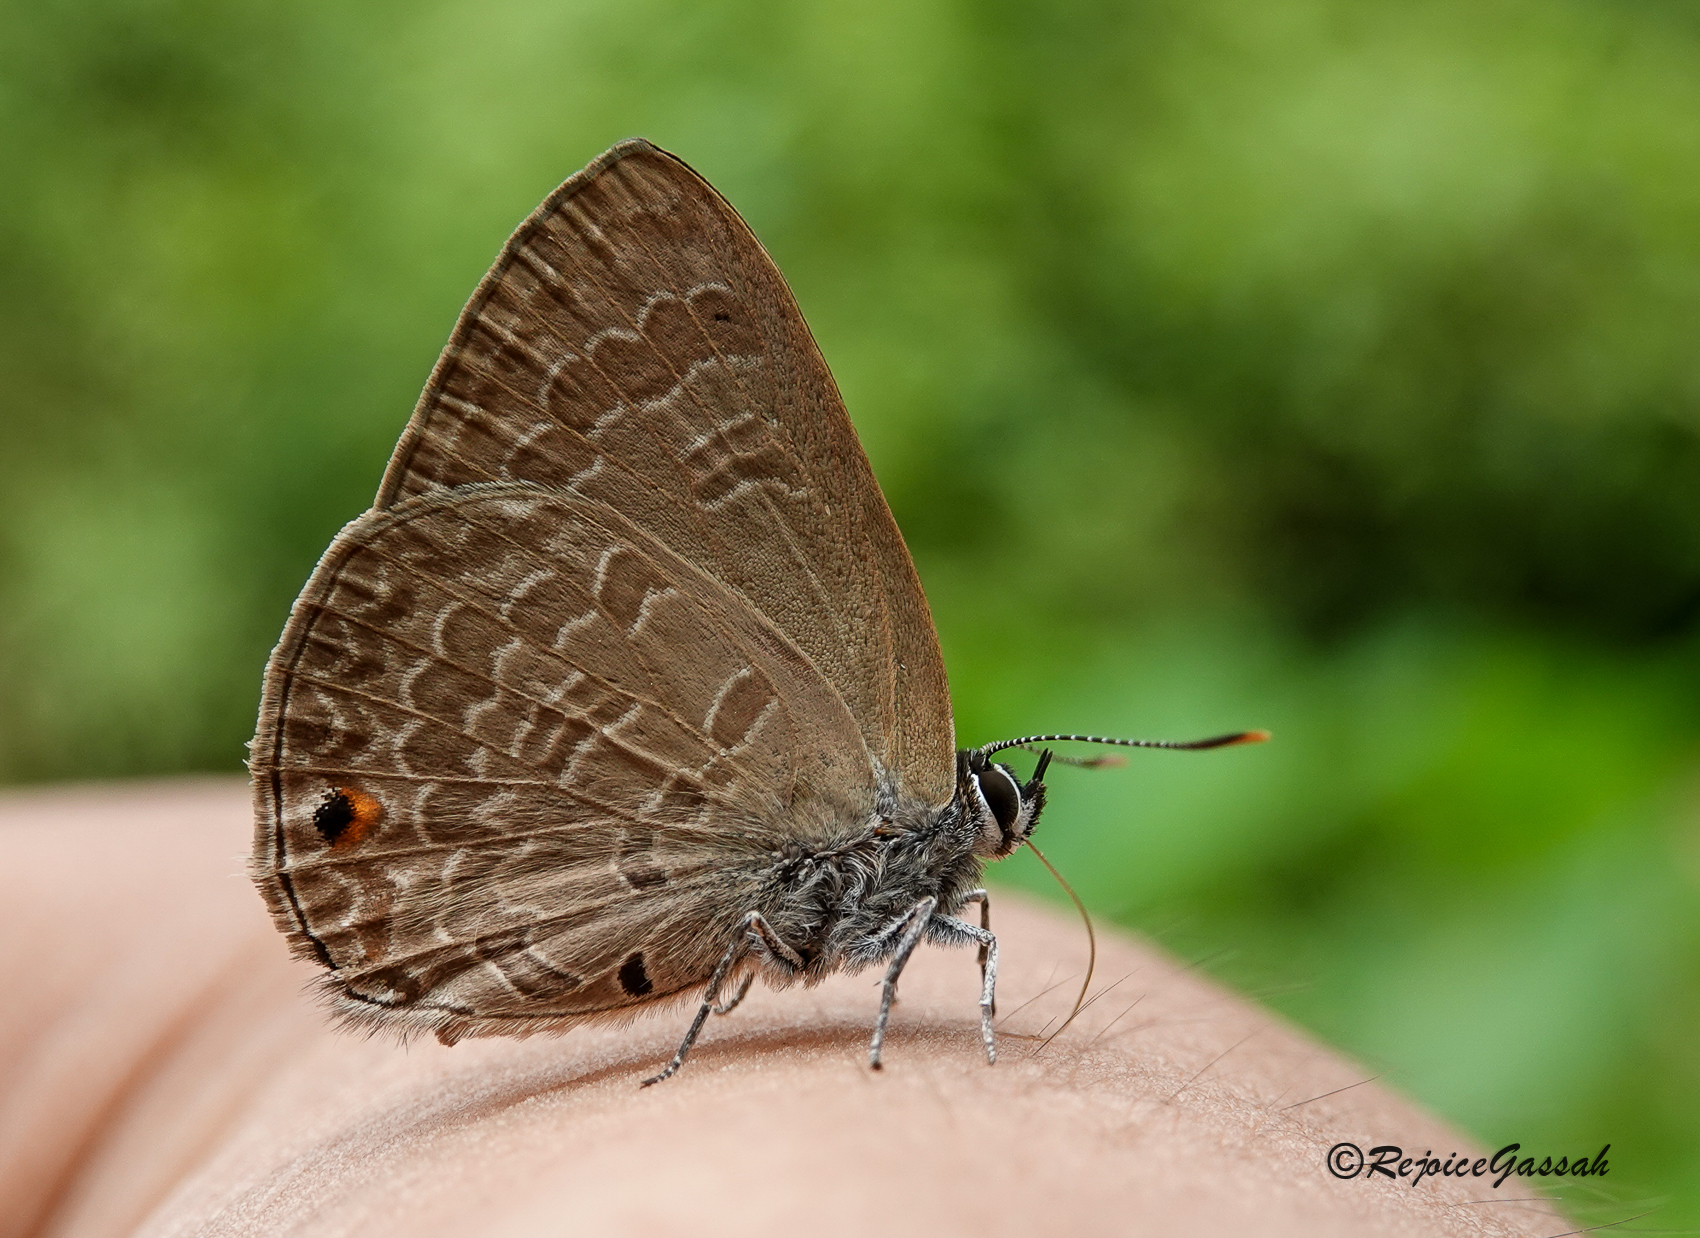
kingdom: Animalia
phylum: Arthropoda
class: Insecta
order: Lepidoptera
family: Lycaenidae
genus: Anthene
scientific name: Anthene emolus
